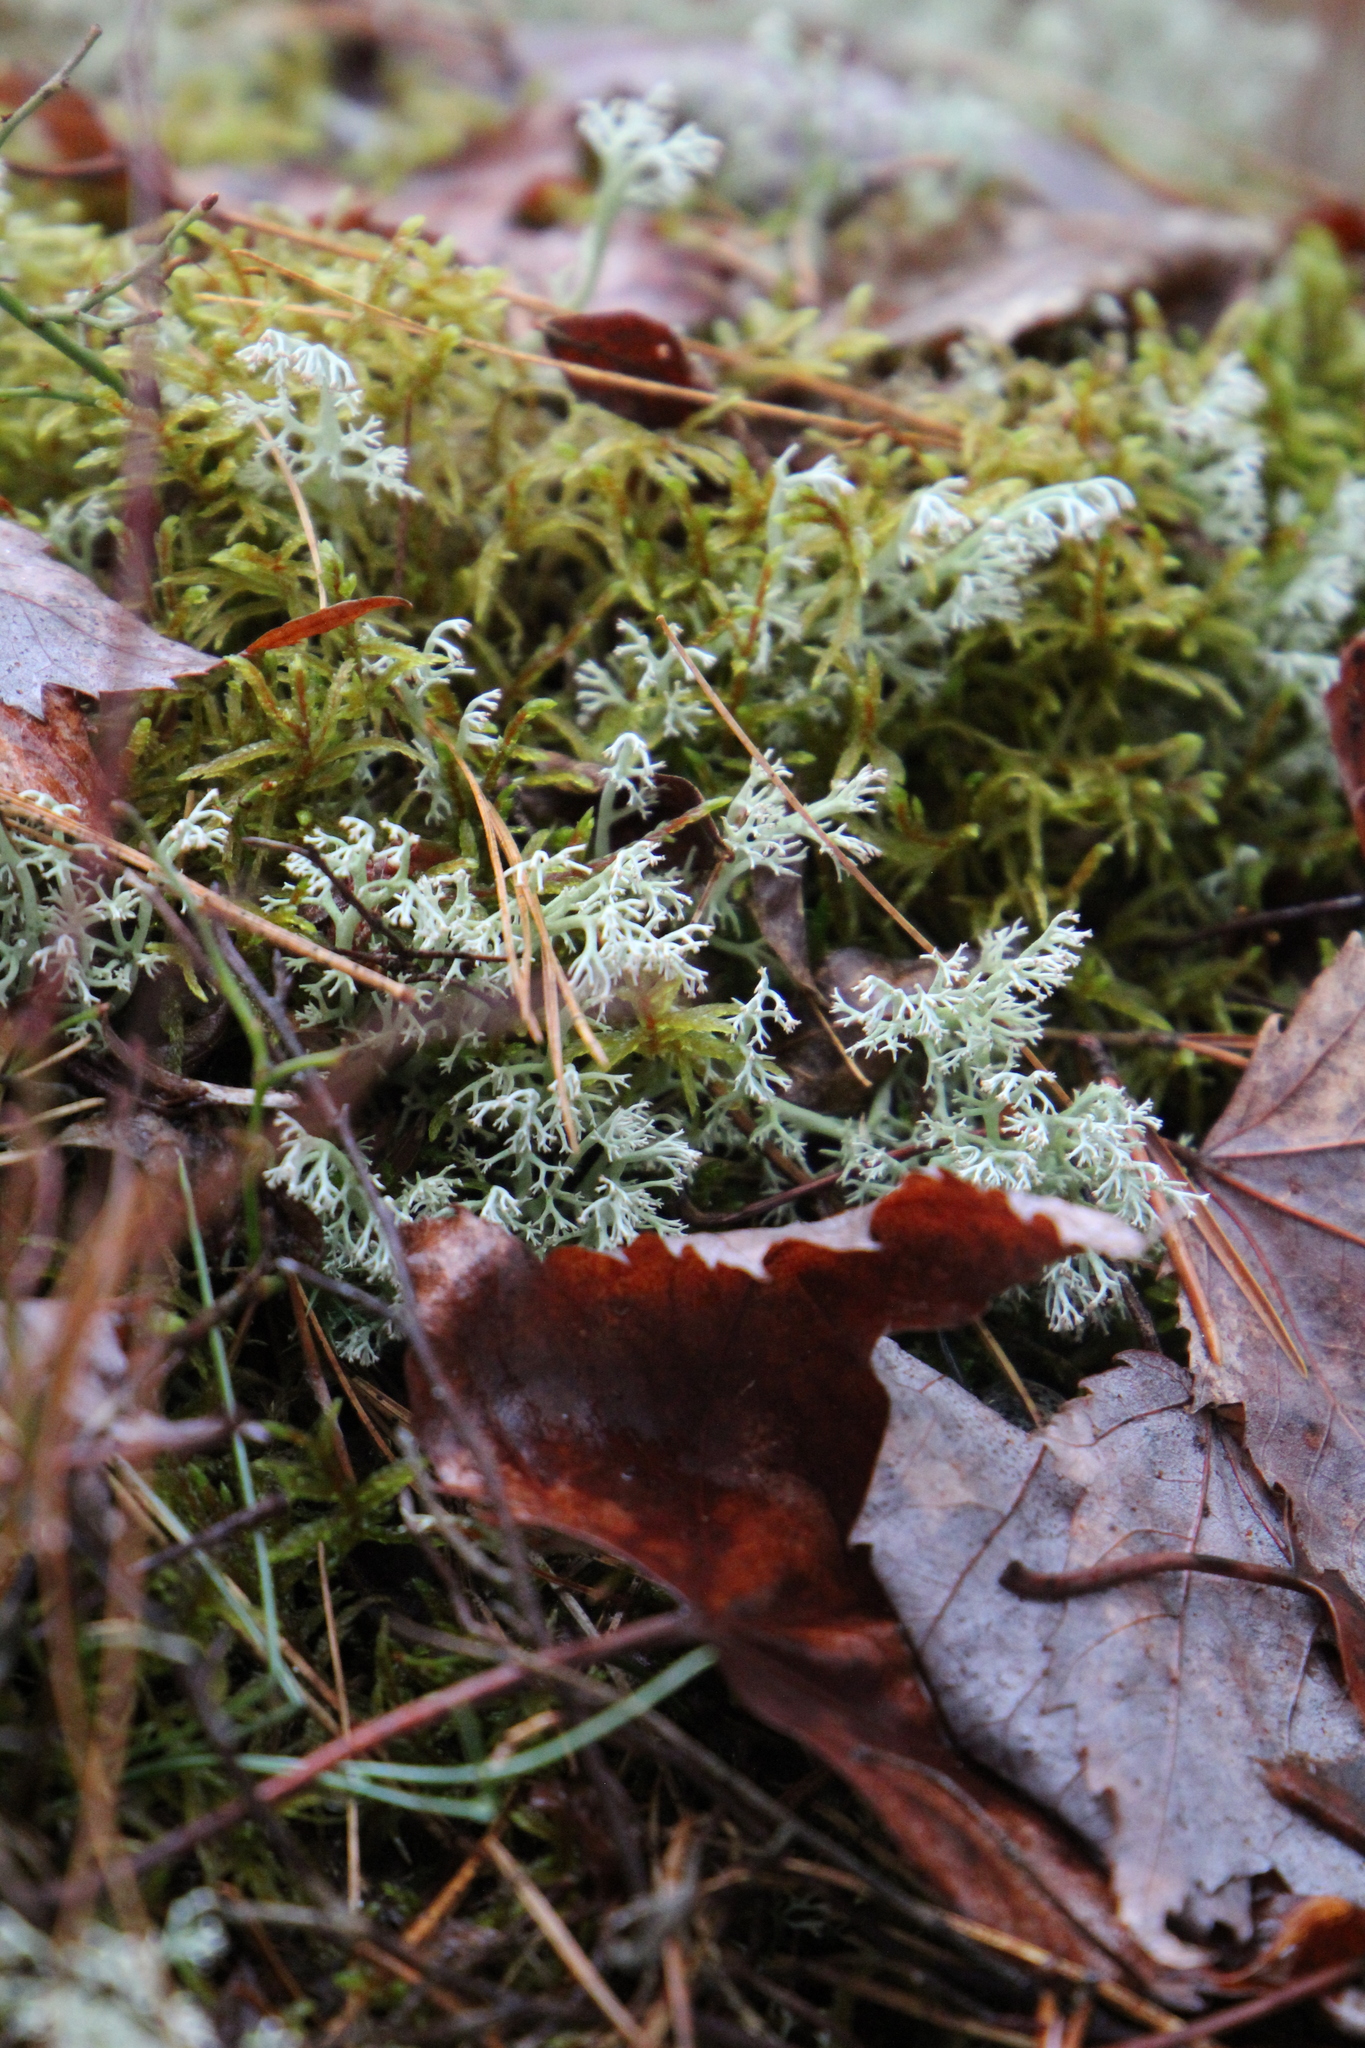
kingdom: Fungi
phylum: Ascomycota
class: Lecanoromycetes
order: Lecanorales
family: Cladoniaceae
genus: Cladonia
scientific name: Cladonia rangiferina
